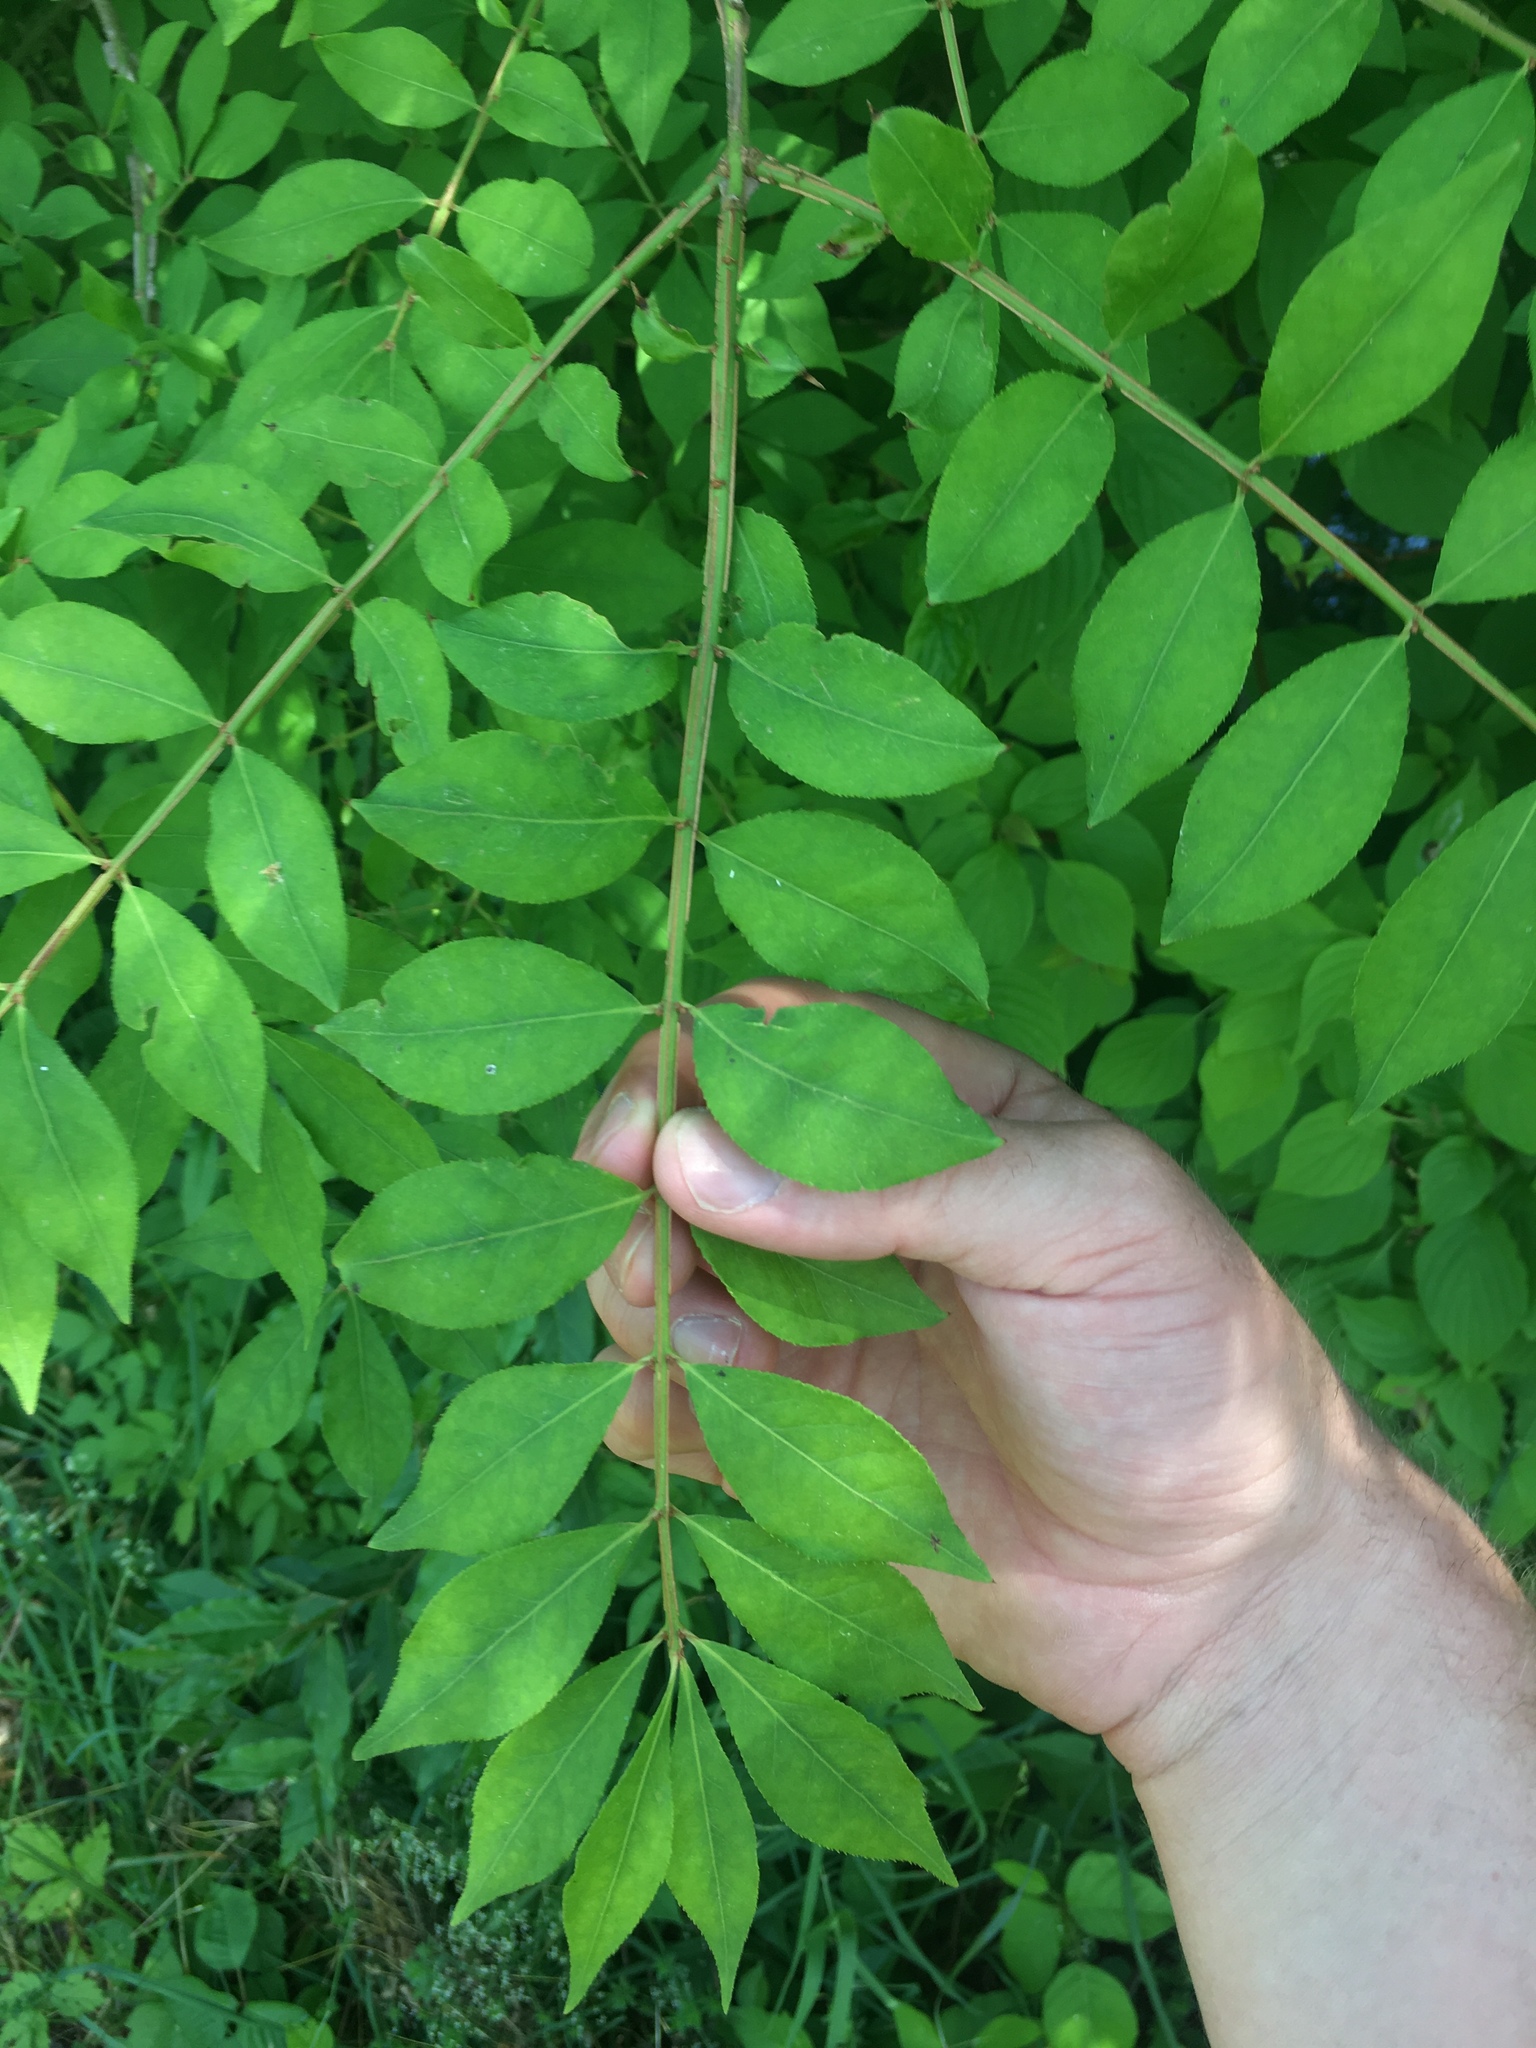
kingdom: Plantae
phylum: Tracheophyta
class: Magnoliopsida
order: Celastrales
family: Celastraceae
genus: Euonymus
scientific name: Euonymus alatus
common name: Winged euonymus
